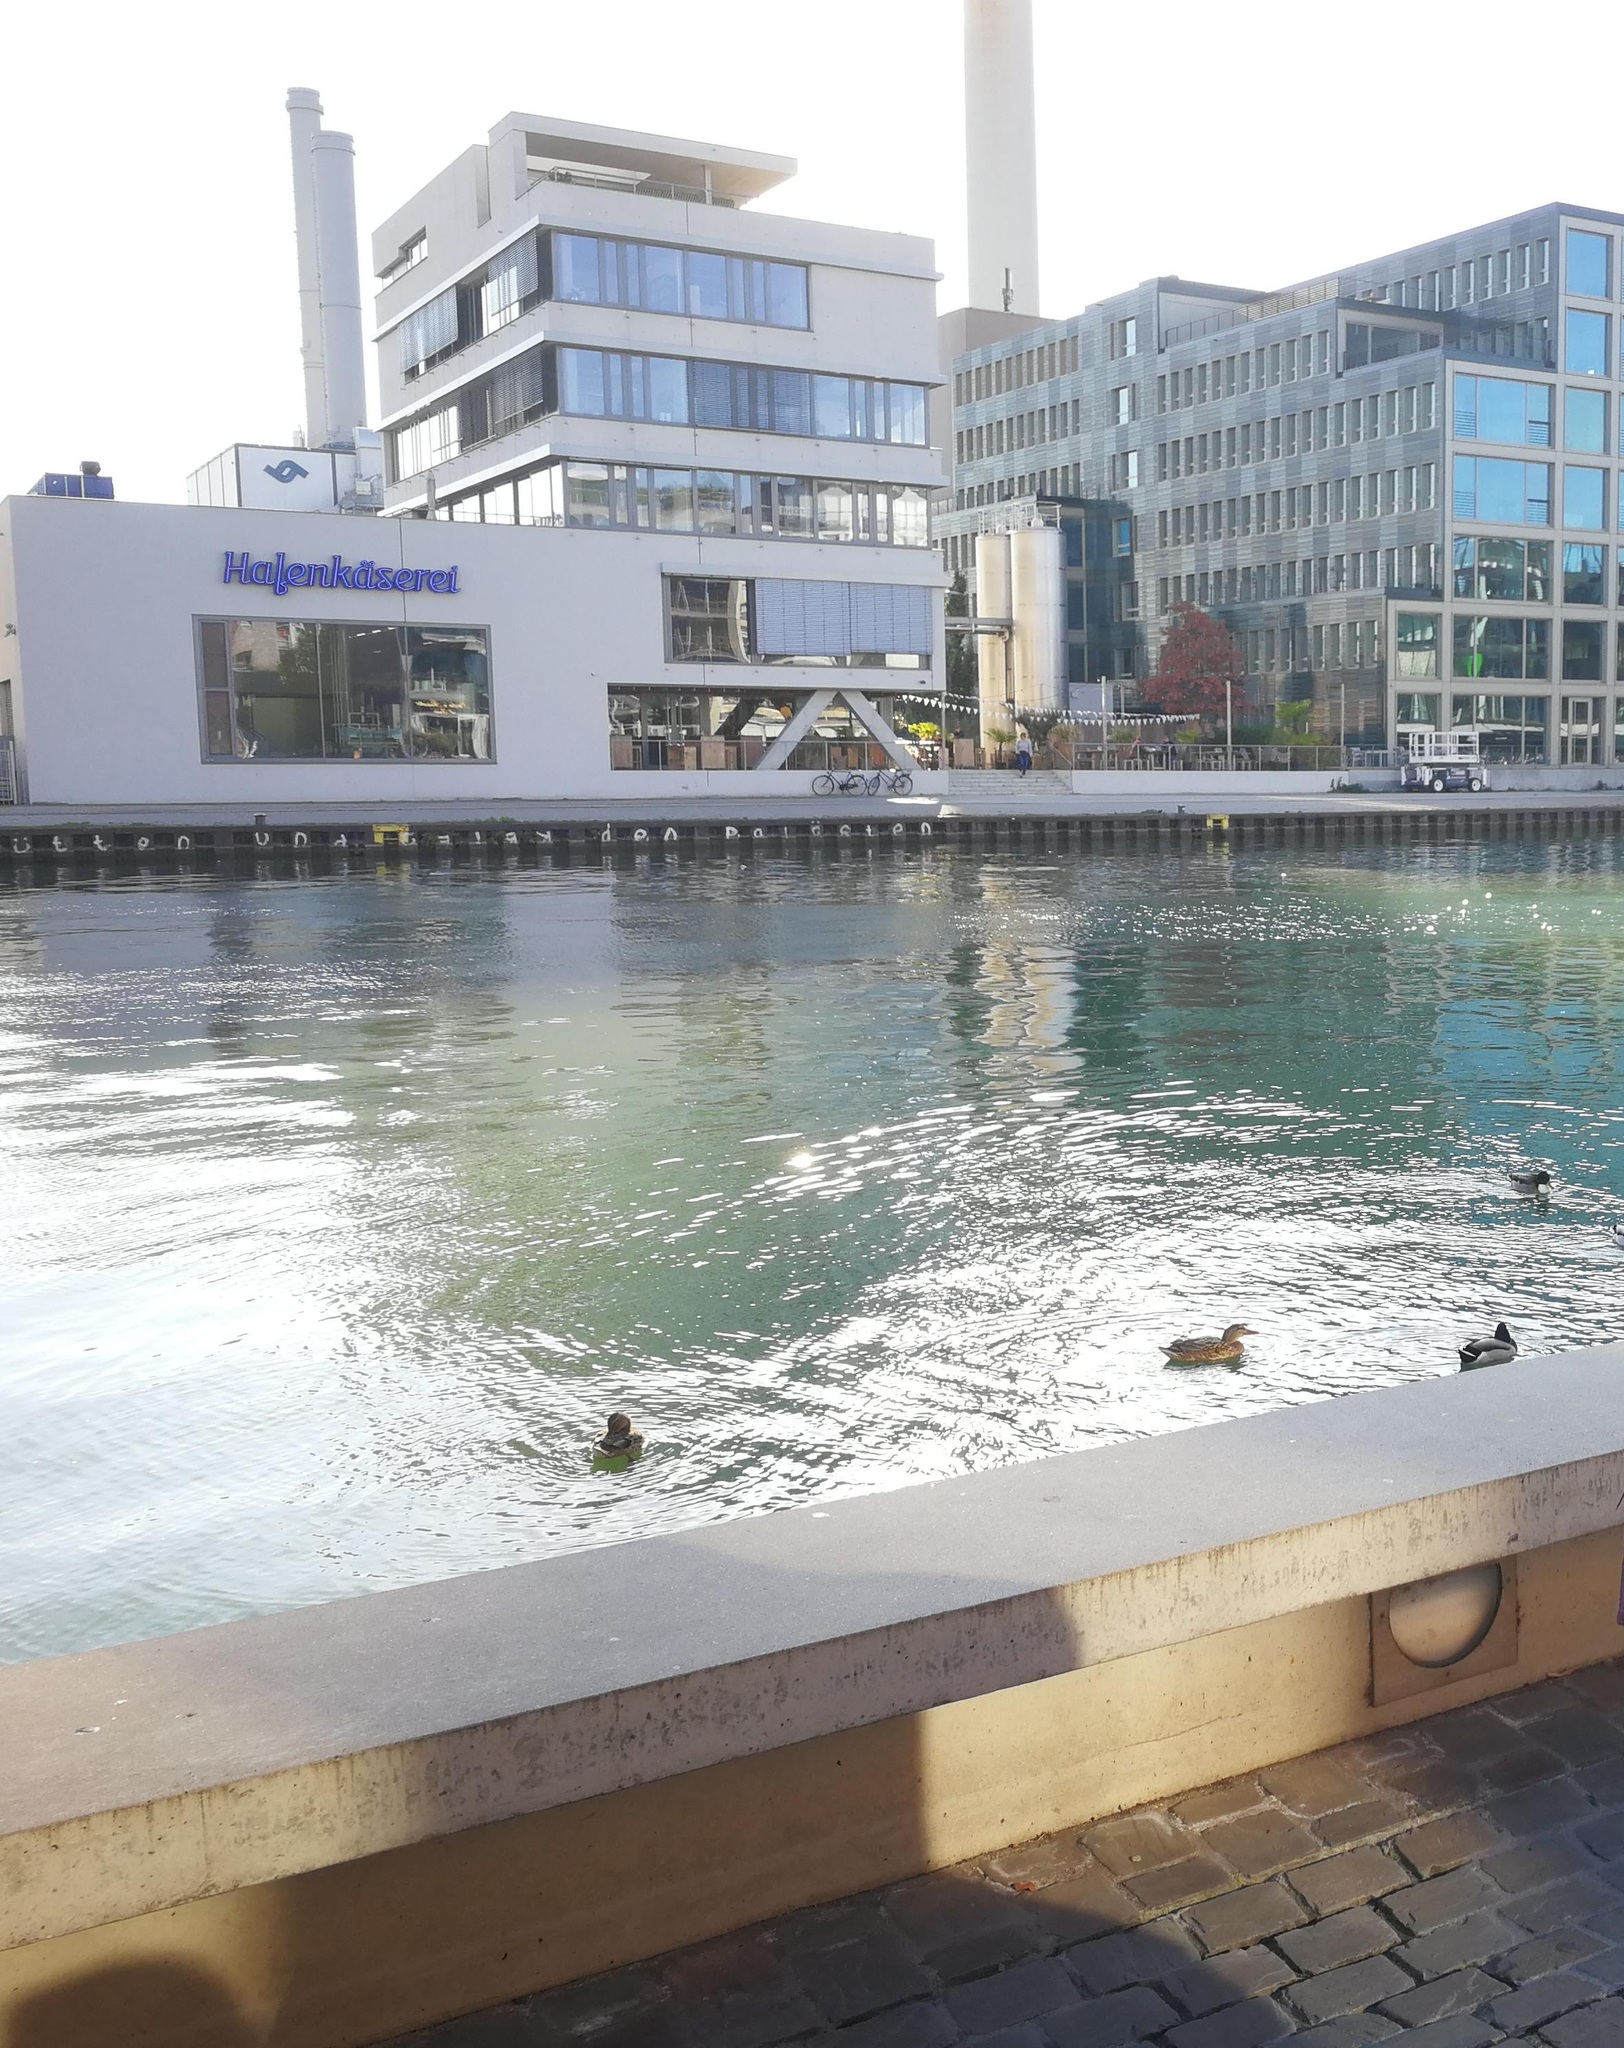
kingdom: Animalia
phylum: Chordata
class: Aves
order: Anseriformes
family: Anatidae
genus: Anas
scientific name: Anas platyrhynchos
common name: Mallard
